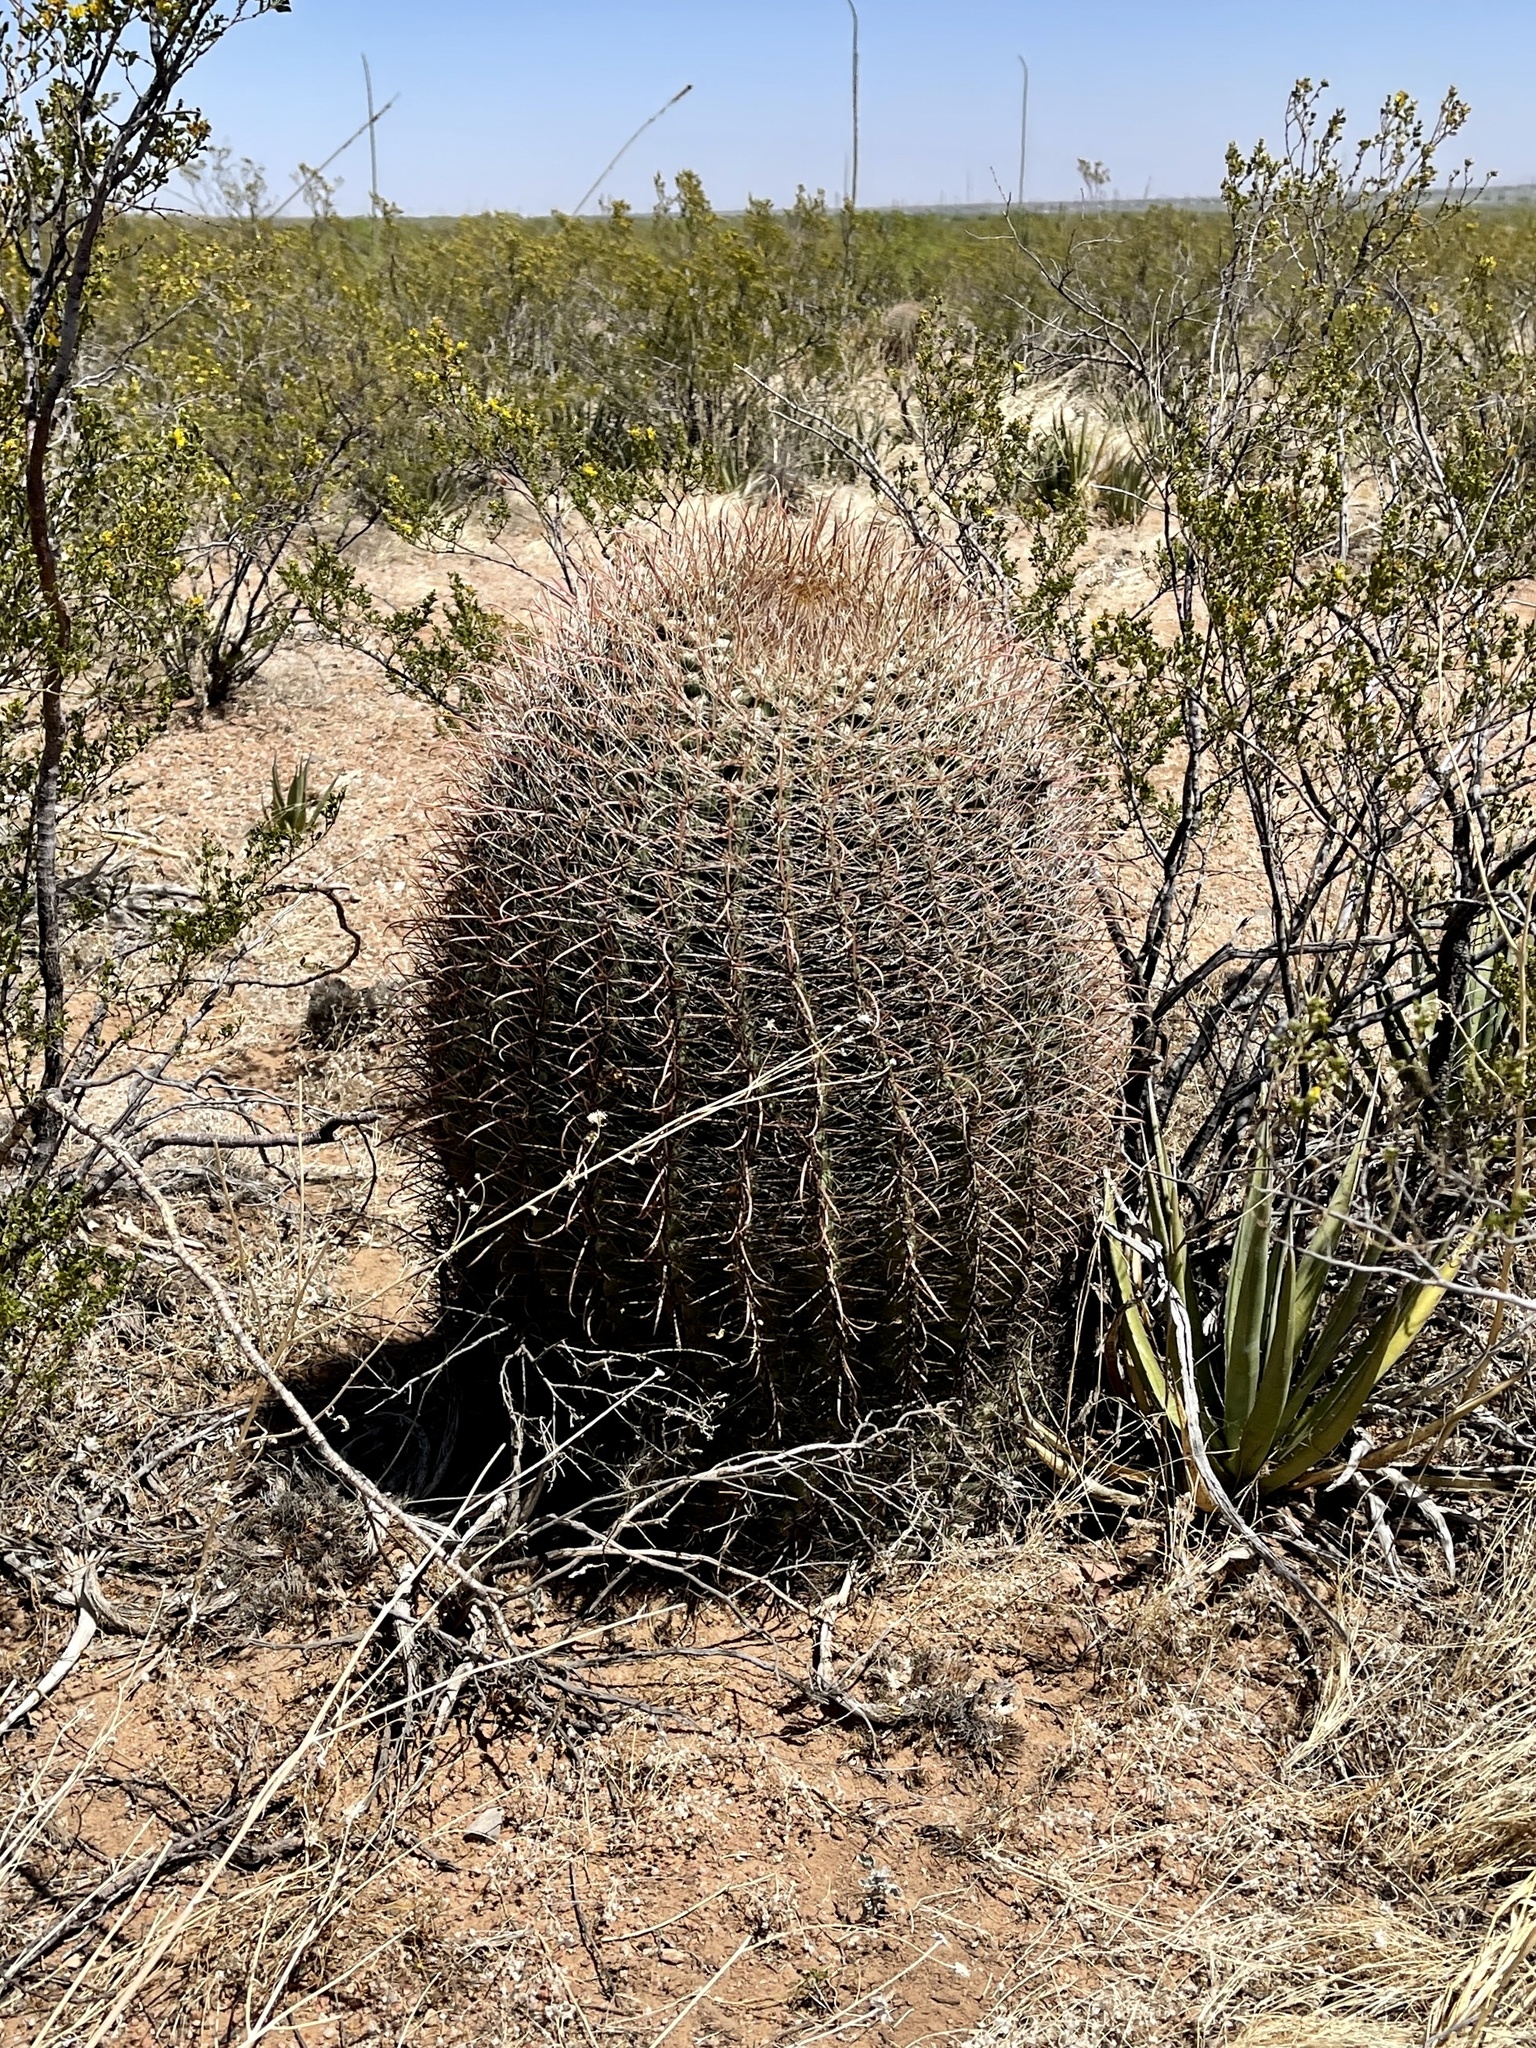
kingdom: Plantae
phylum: Tracheophyta
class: Magnoliopsida
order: Caryophyllales
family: Cactaceae
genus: Ferocactus
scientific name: Ferocactus wislizeni
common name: Candy barrel cactus
